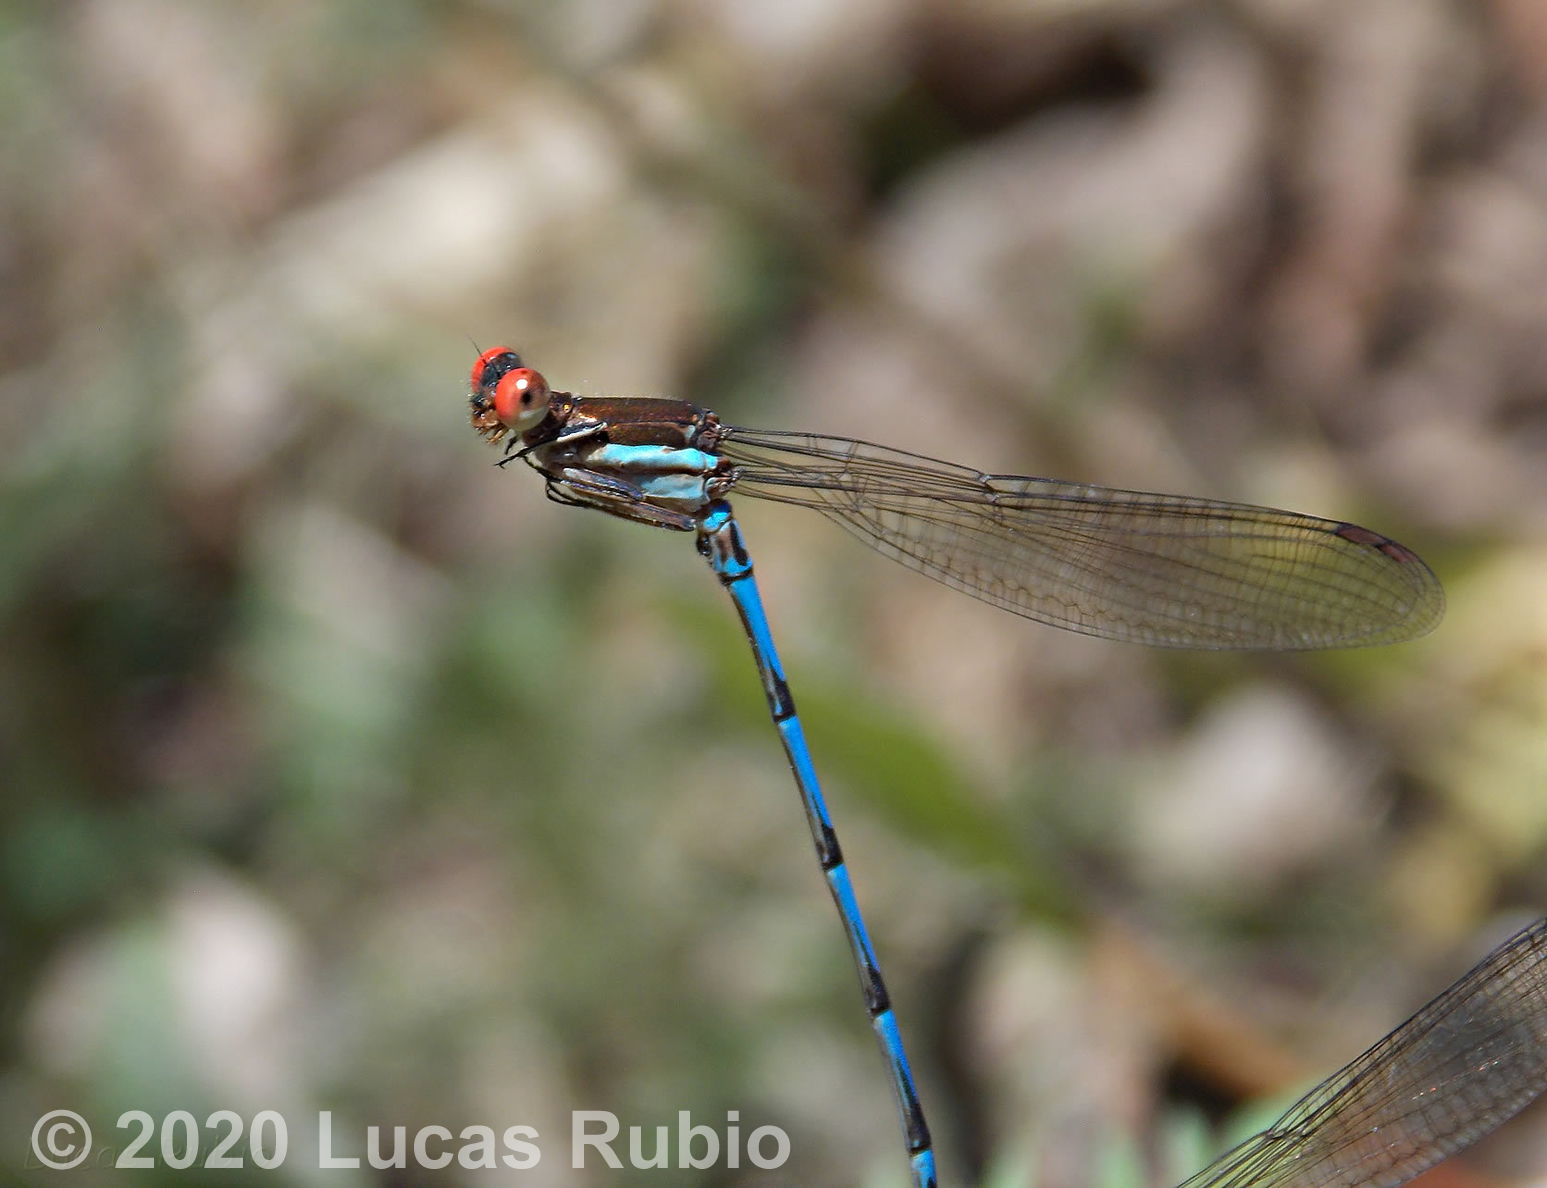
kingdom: Animalia
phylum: Arthropoda
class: Insecta
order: Odonata
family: Coenagrionidae
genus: Argia
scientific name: Argia joergenseni
